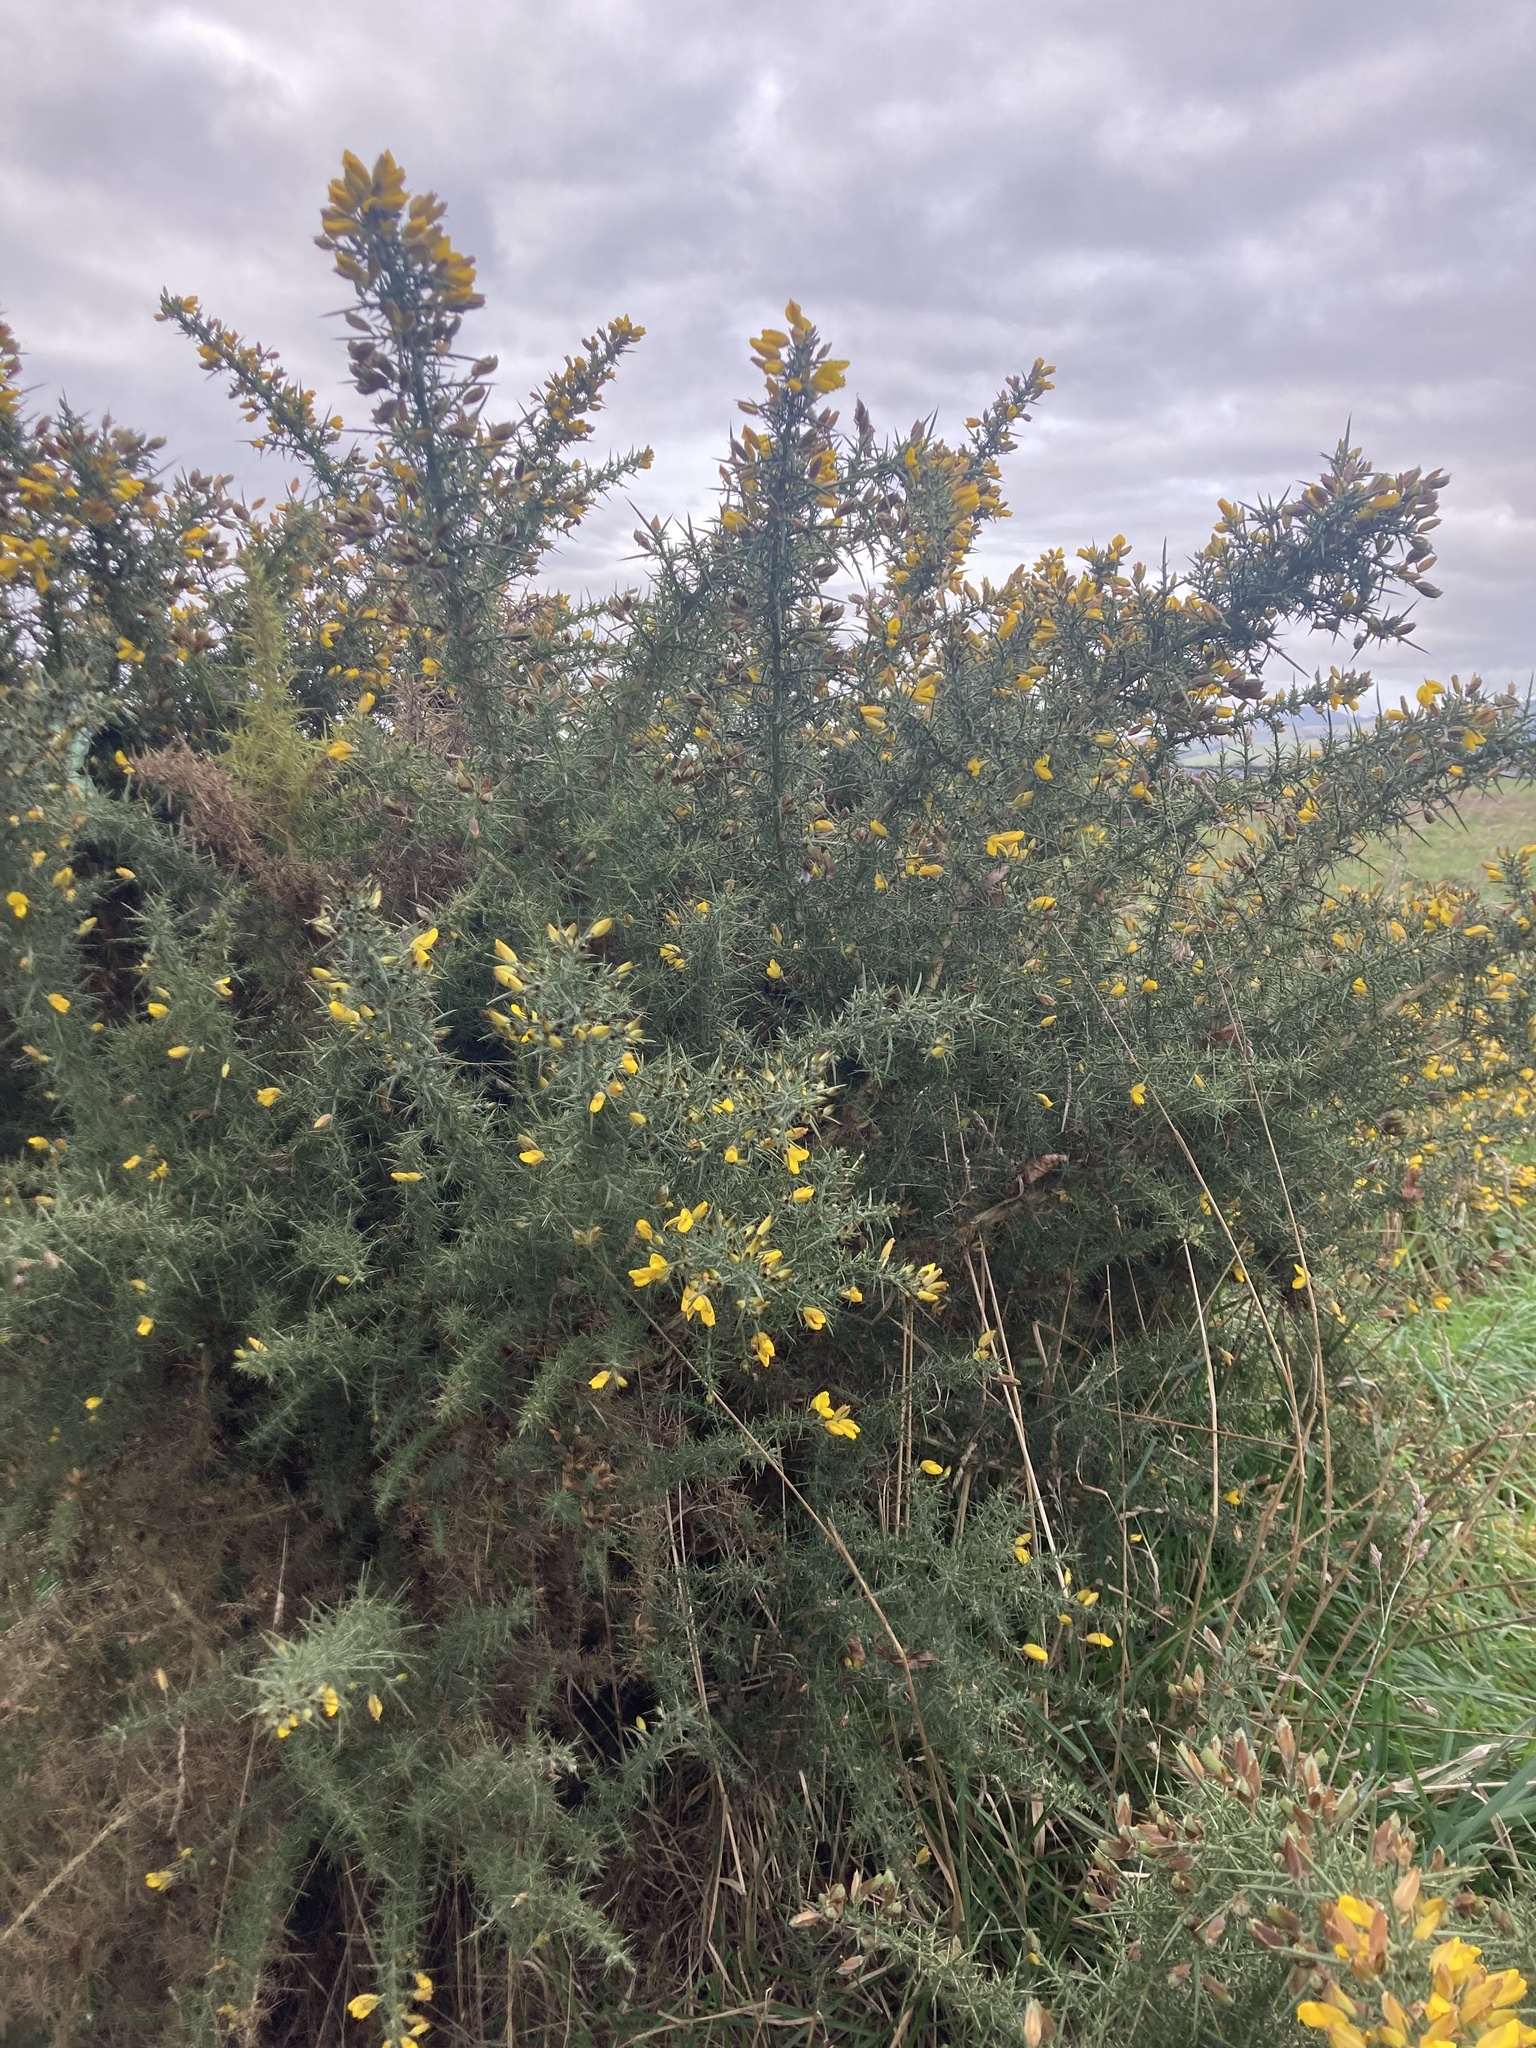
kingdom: Plantae
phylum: Tracheophyta
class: Magnoliopsida
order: Fabales
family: Fabaceae
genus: Ulex
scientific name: Ulex europaeus
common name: Common gorse
